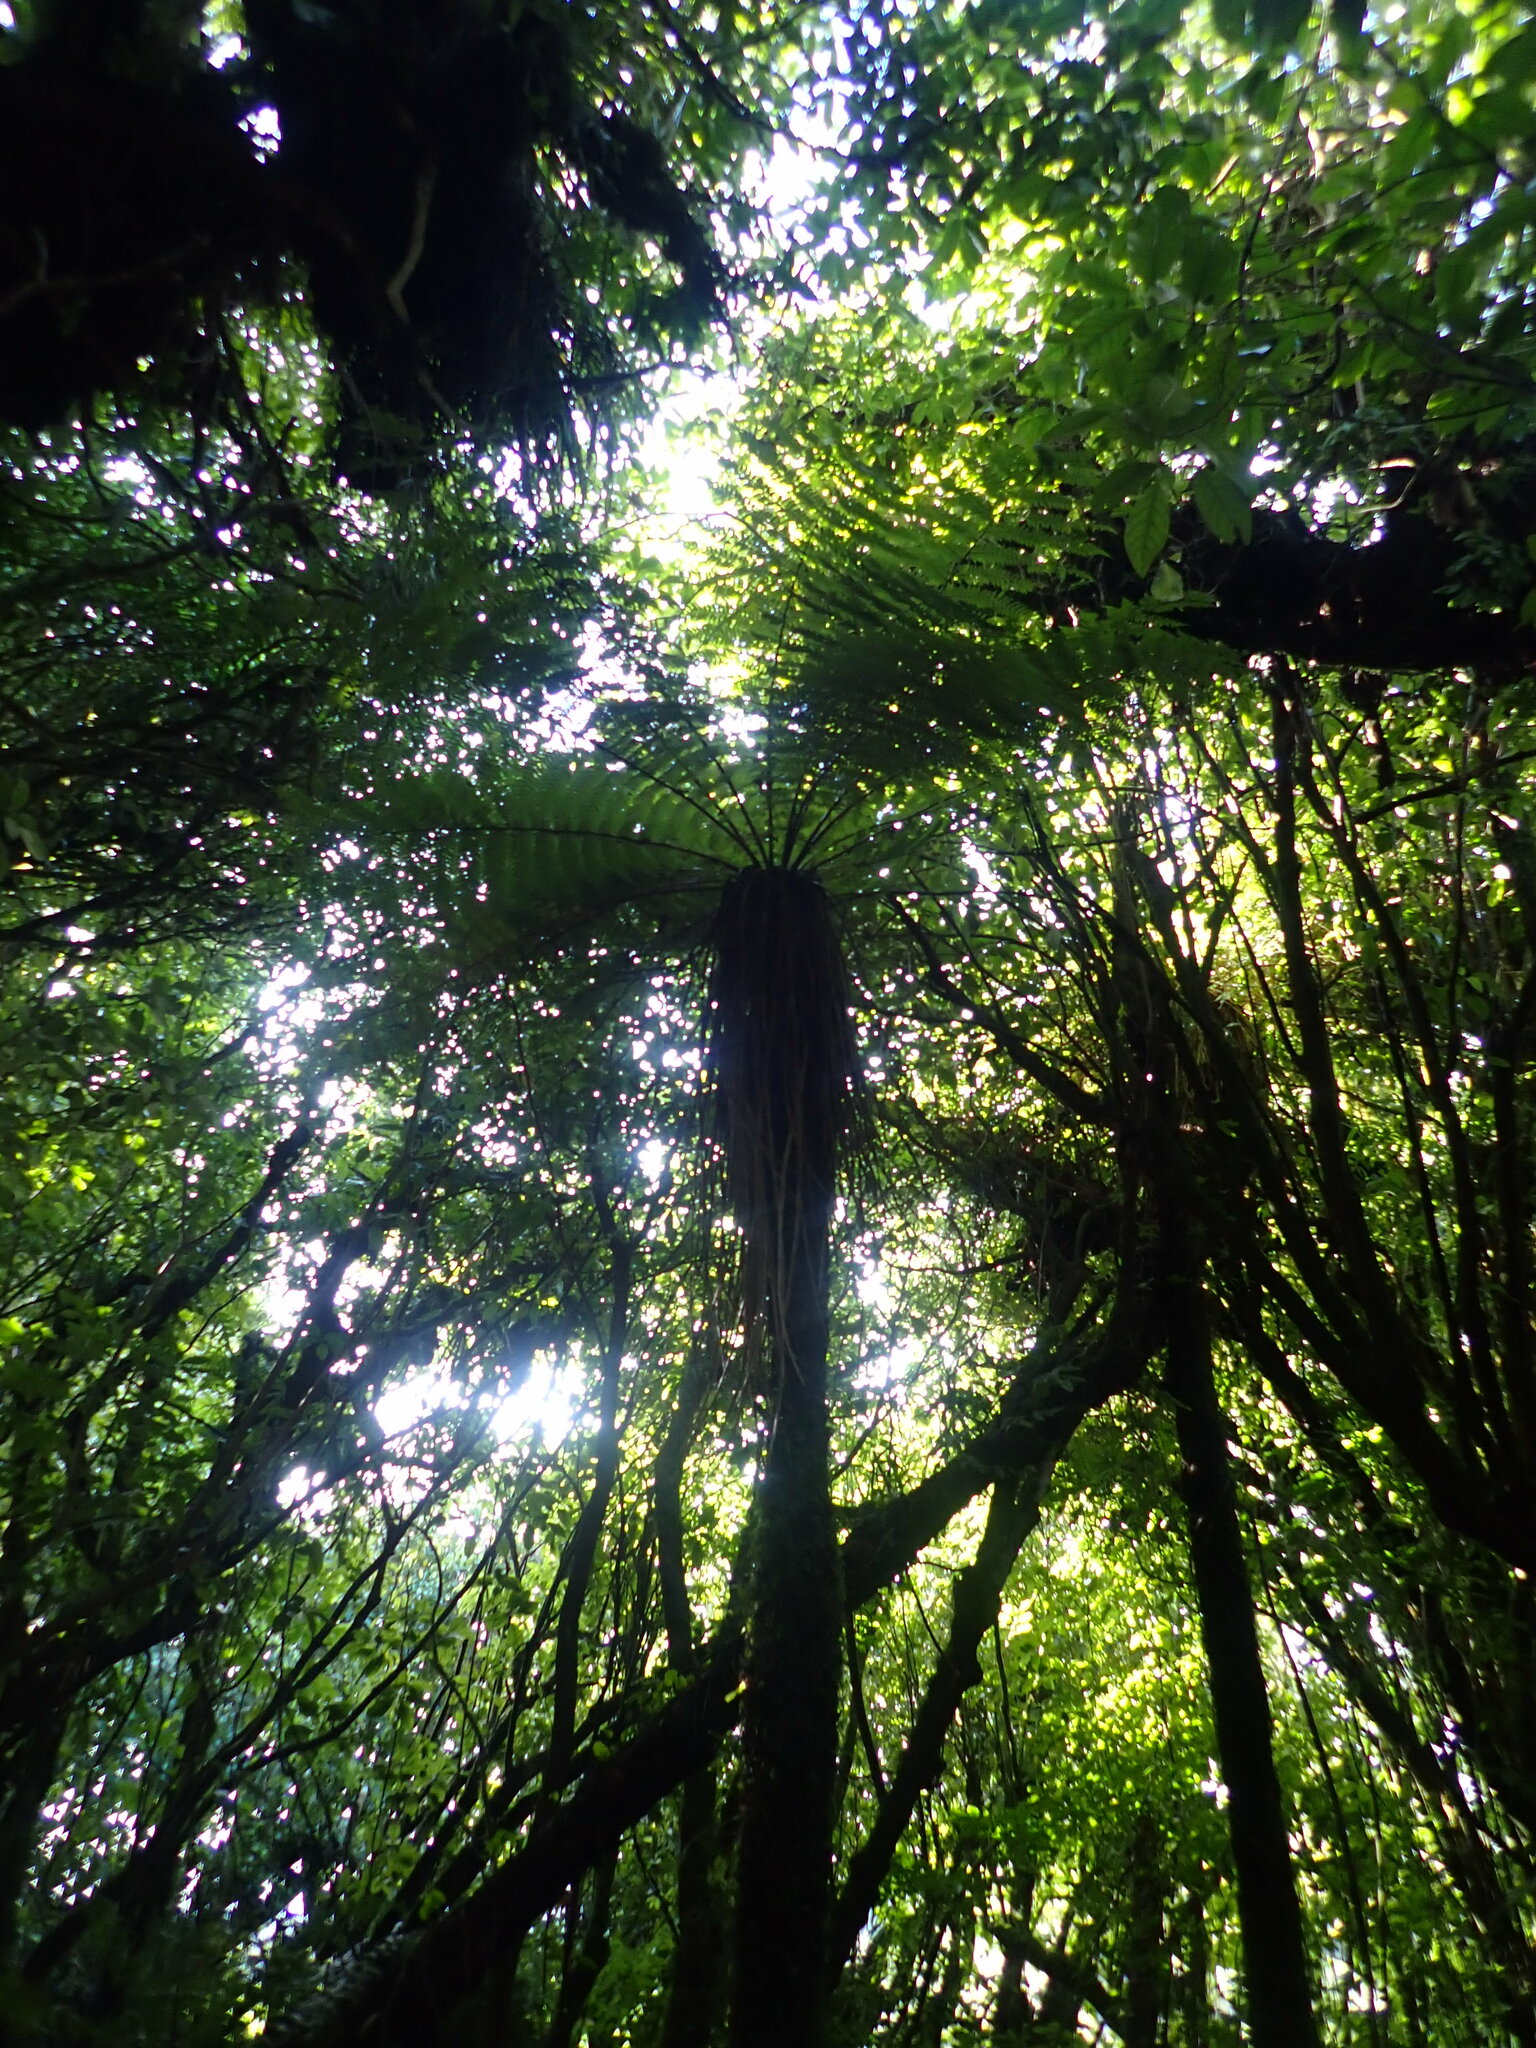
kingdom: Plantae
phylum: Tracheophyta
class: Polypodiopsida
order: Cyatheales
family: Cyatheaceae
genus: Alsophila
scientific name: Alsophila smithii
